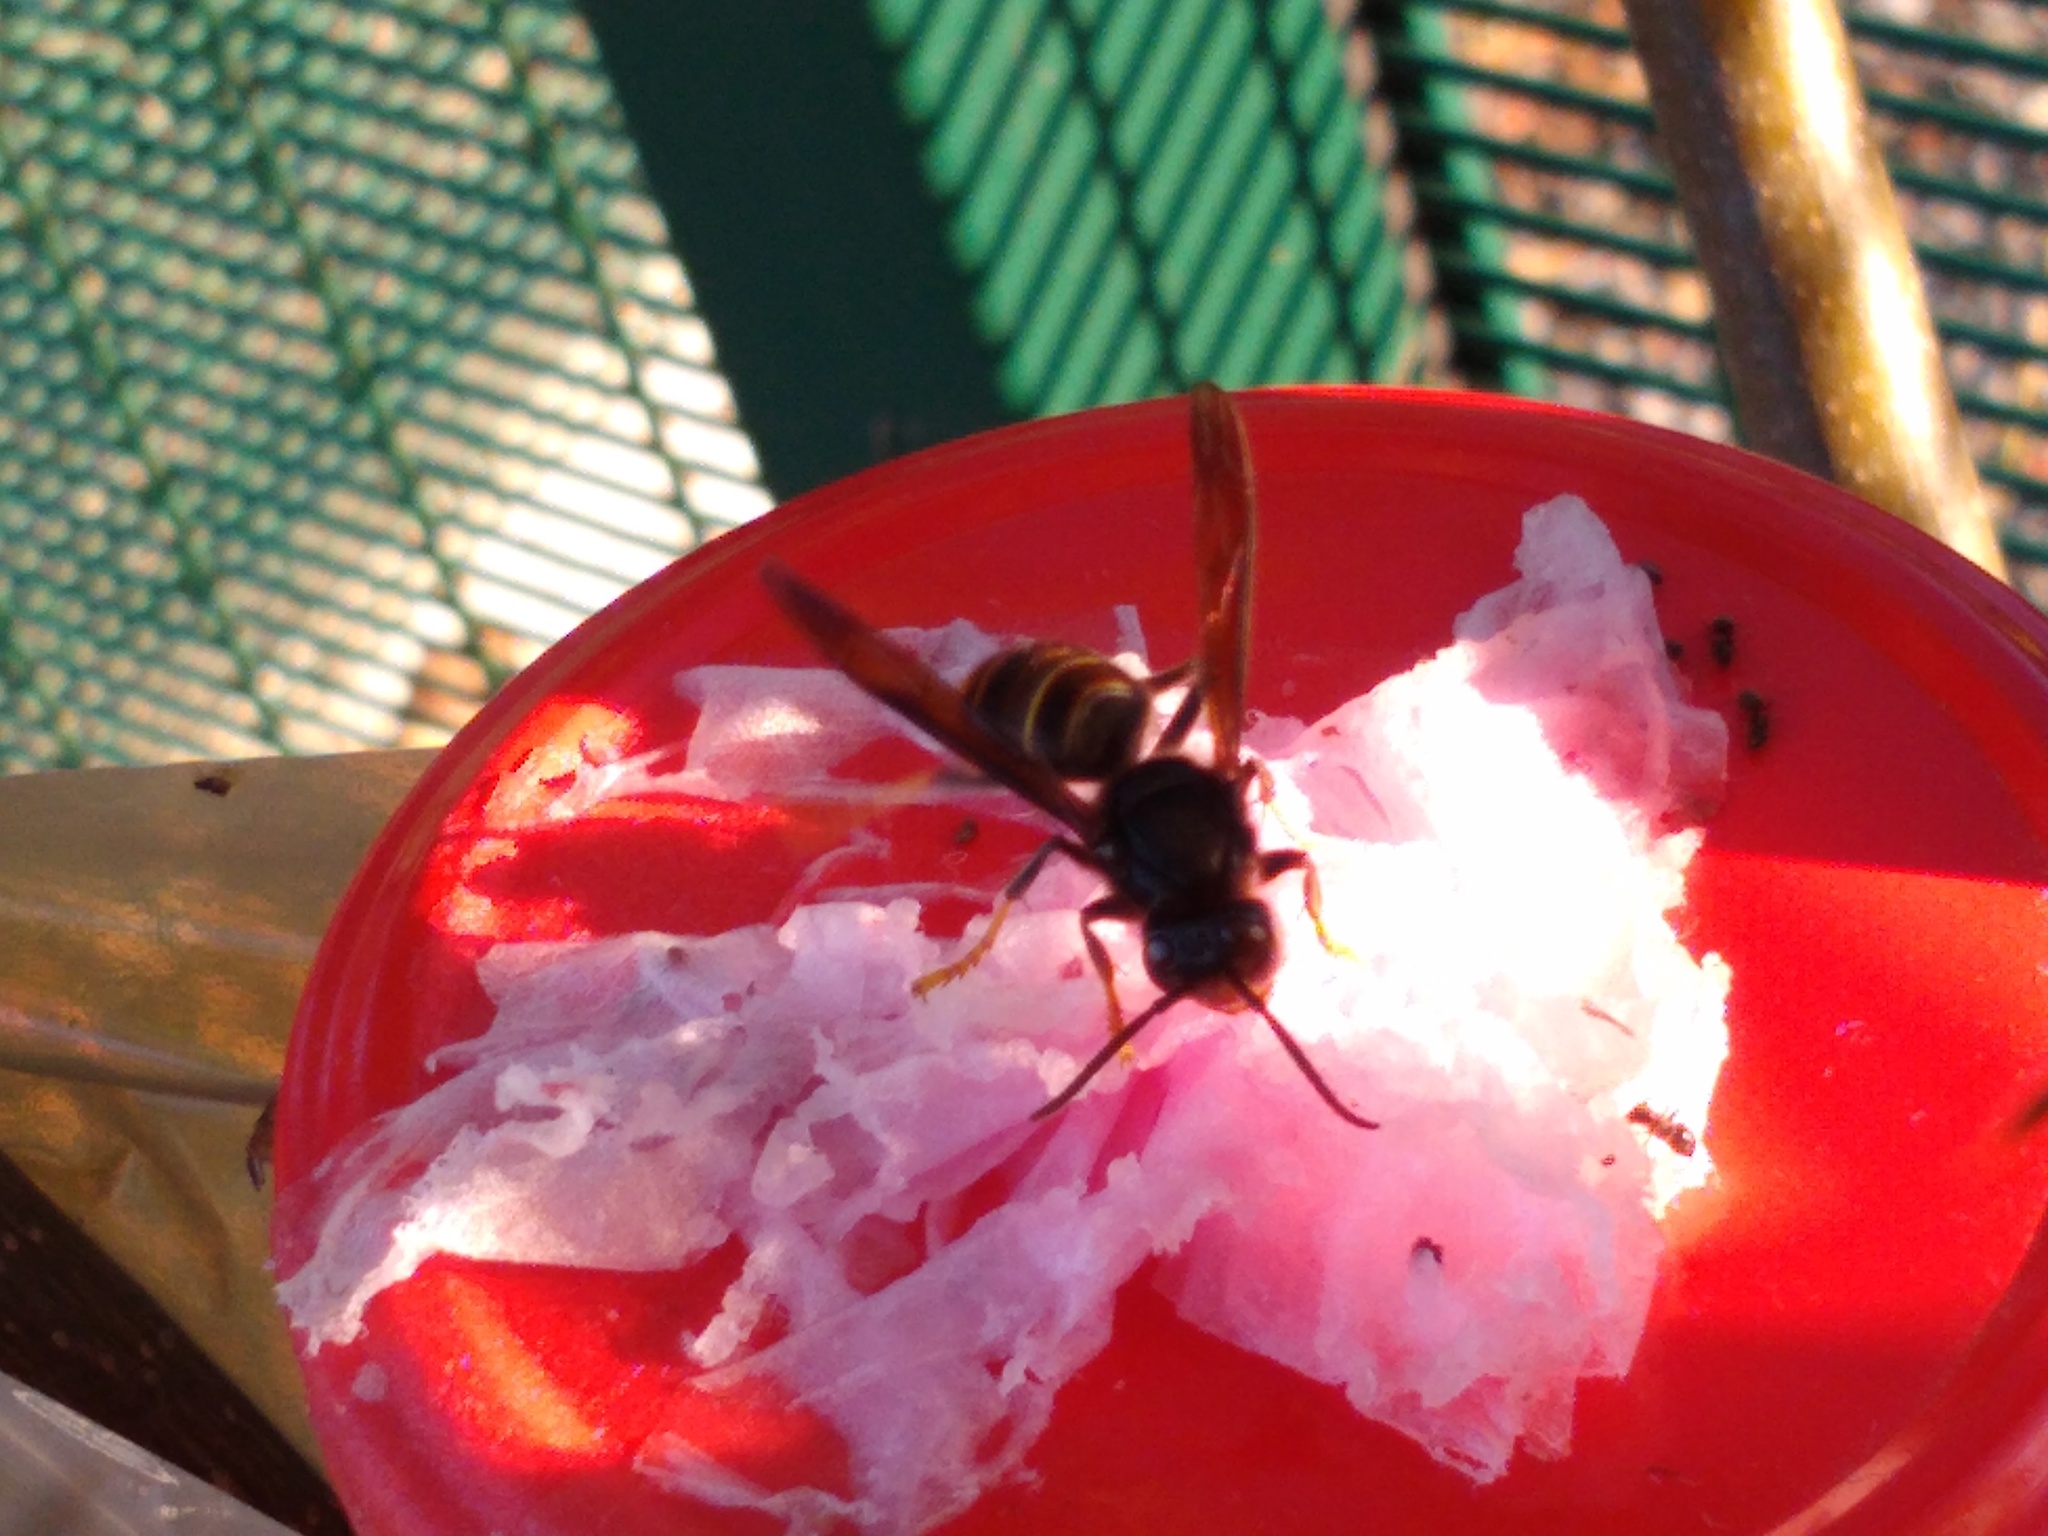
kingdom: Animalia
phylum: Arthropoda
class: Insecta
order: Hymenoptera
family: Vespidae
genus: Vespa
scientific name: Vespa velutina
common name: Asian hornet
